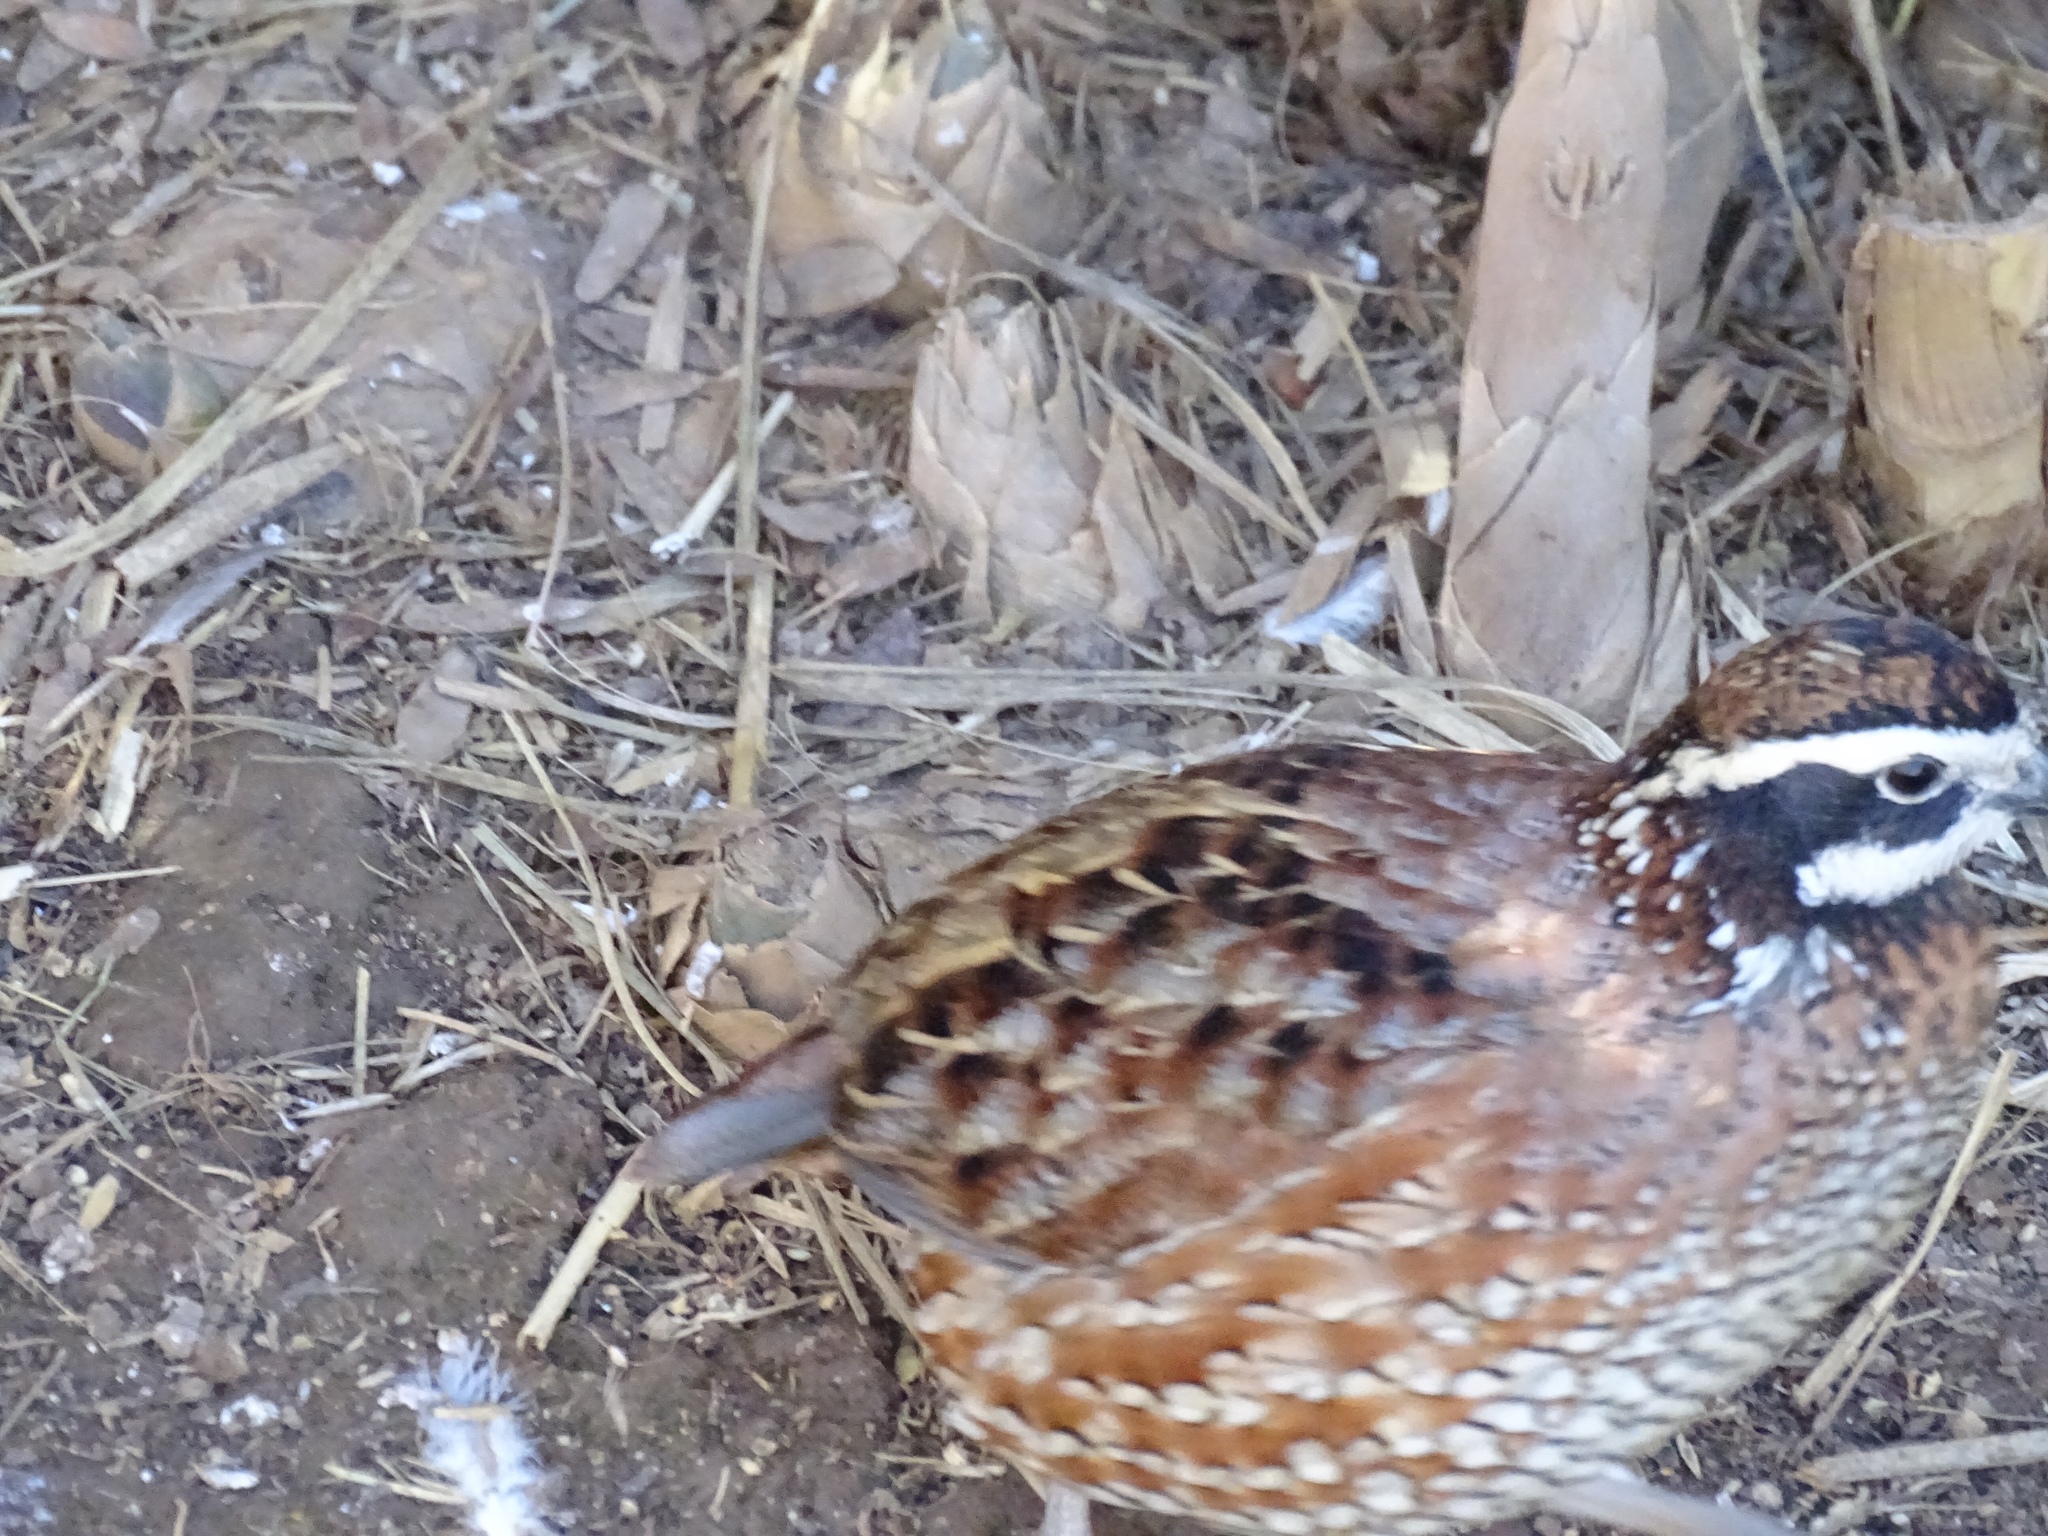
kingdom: Animalia
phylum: Chordata
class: Aves
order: Galliformes
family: Odontophoridae
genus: Colinus
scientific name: Colinus virginianus
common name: Northern bobwhite
